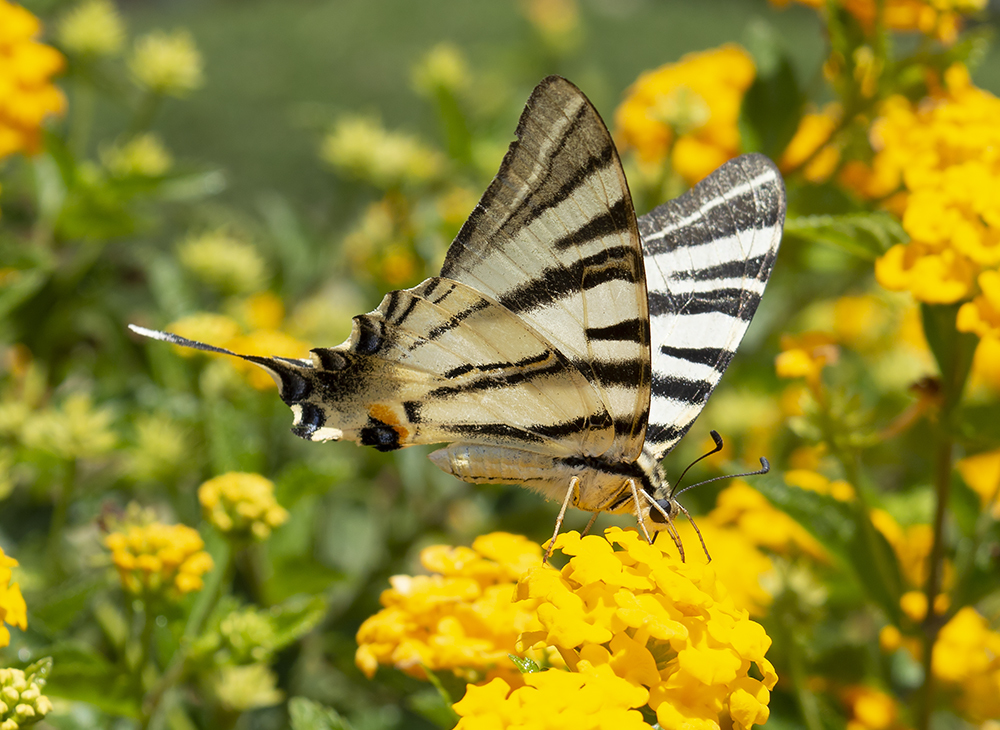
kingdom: Animalia
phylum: Arthropoda
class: Insecta
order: Lepidoptera
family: Papilionidae
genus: Iphiclides
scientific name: Iphiclides podalirius
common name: Scarce swallowtail
